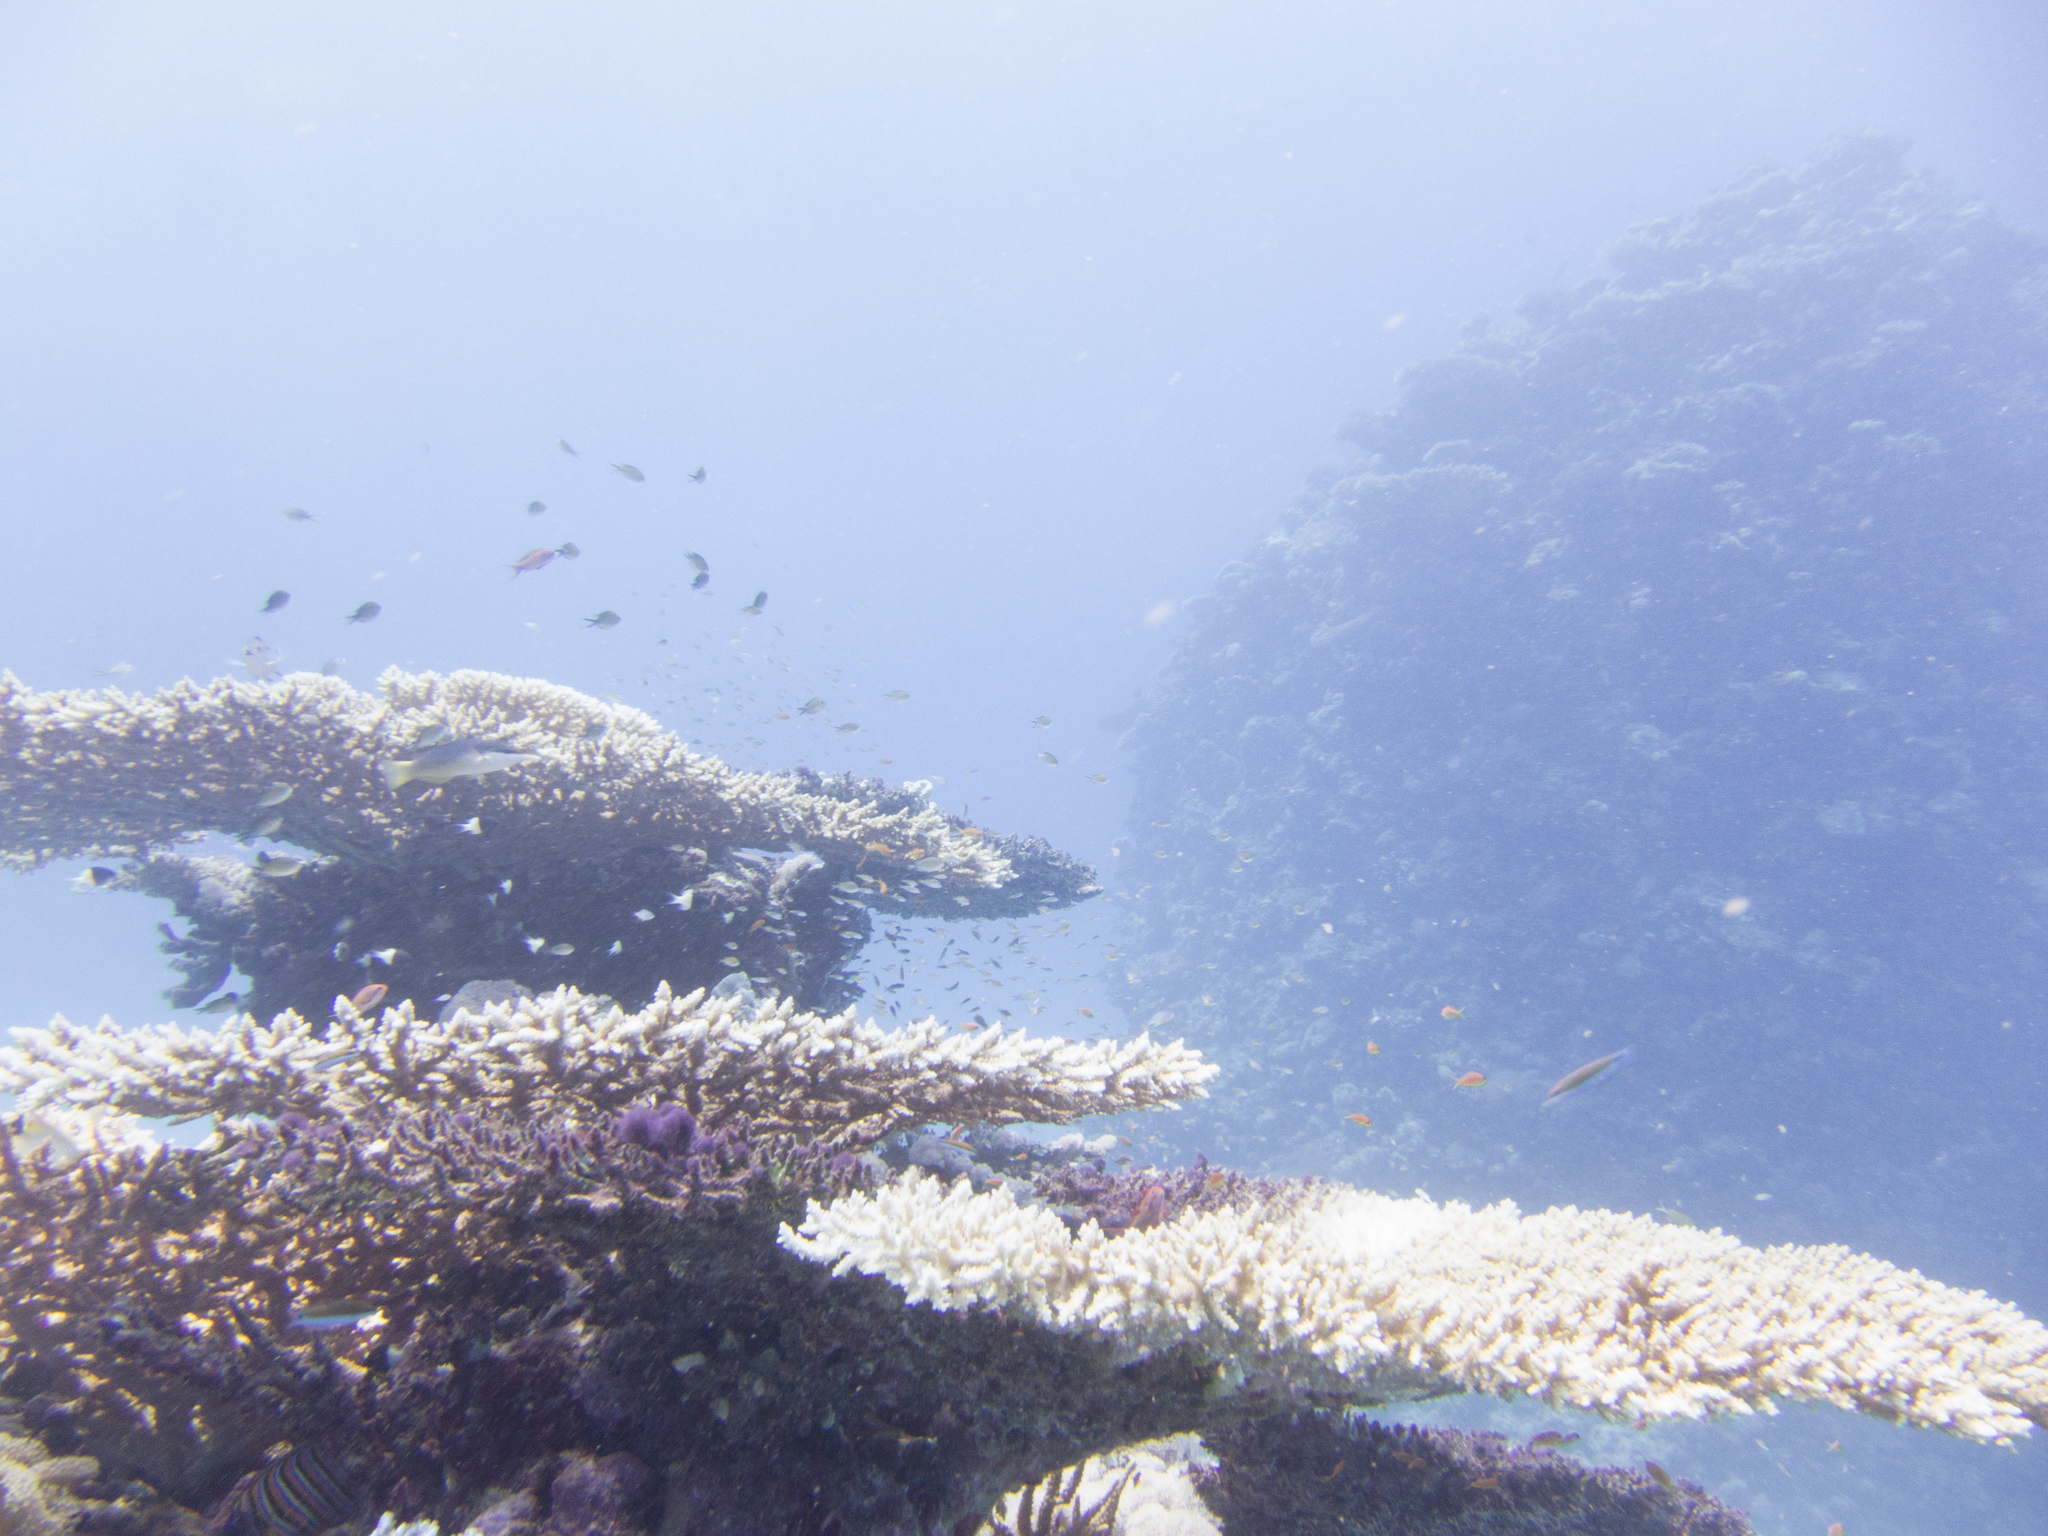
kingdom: Animalia
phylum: Chordata
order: Perciformes
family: Pomacanthidae
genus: Pygoplites
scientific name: Pygoplites diacanthus
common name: Regal angelfish
